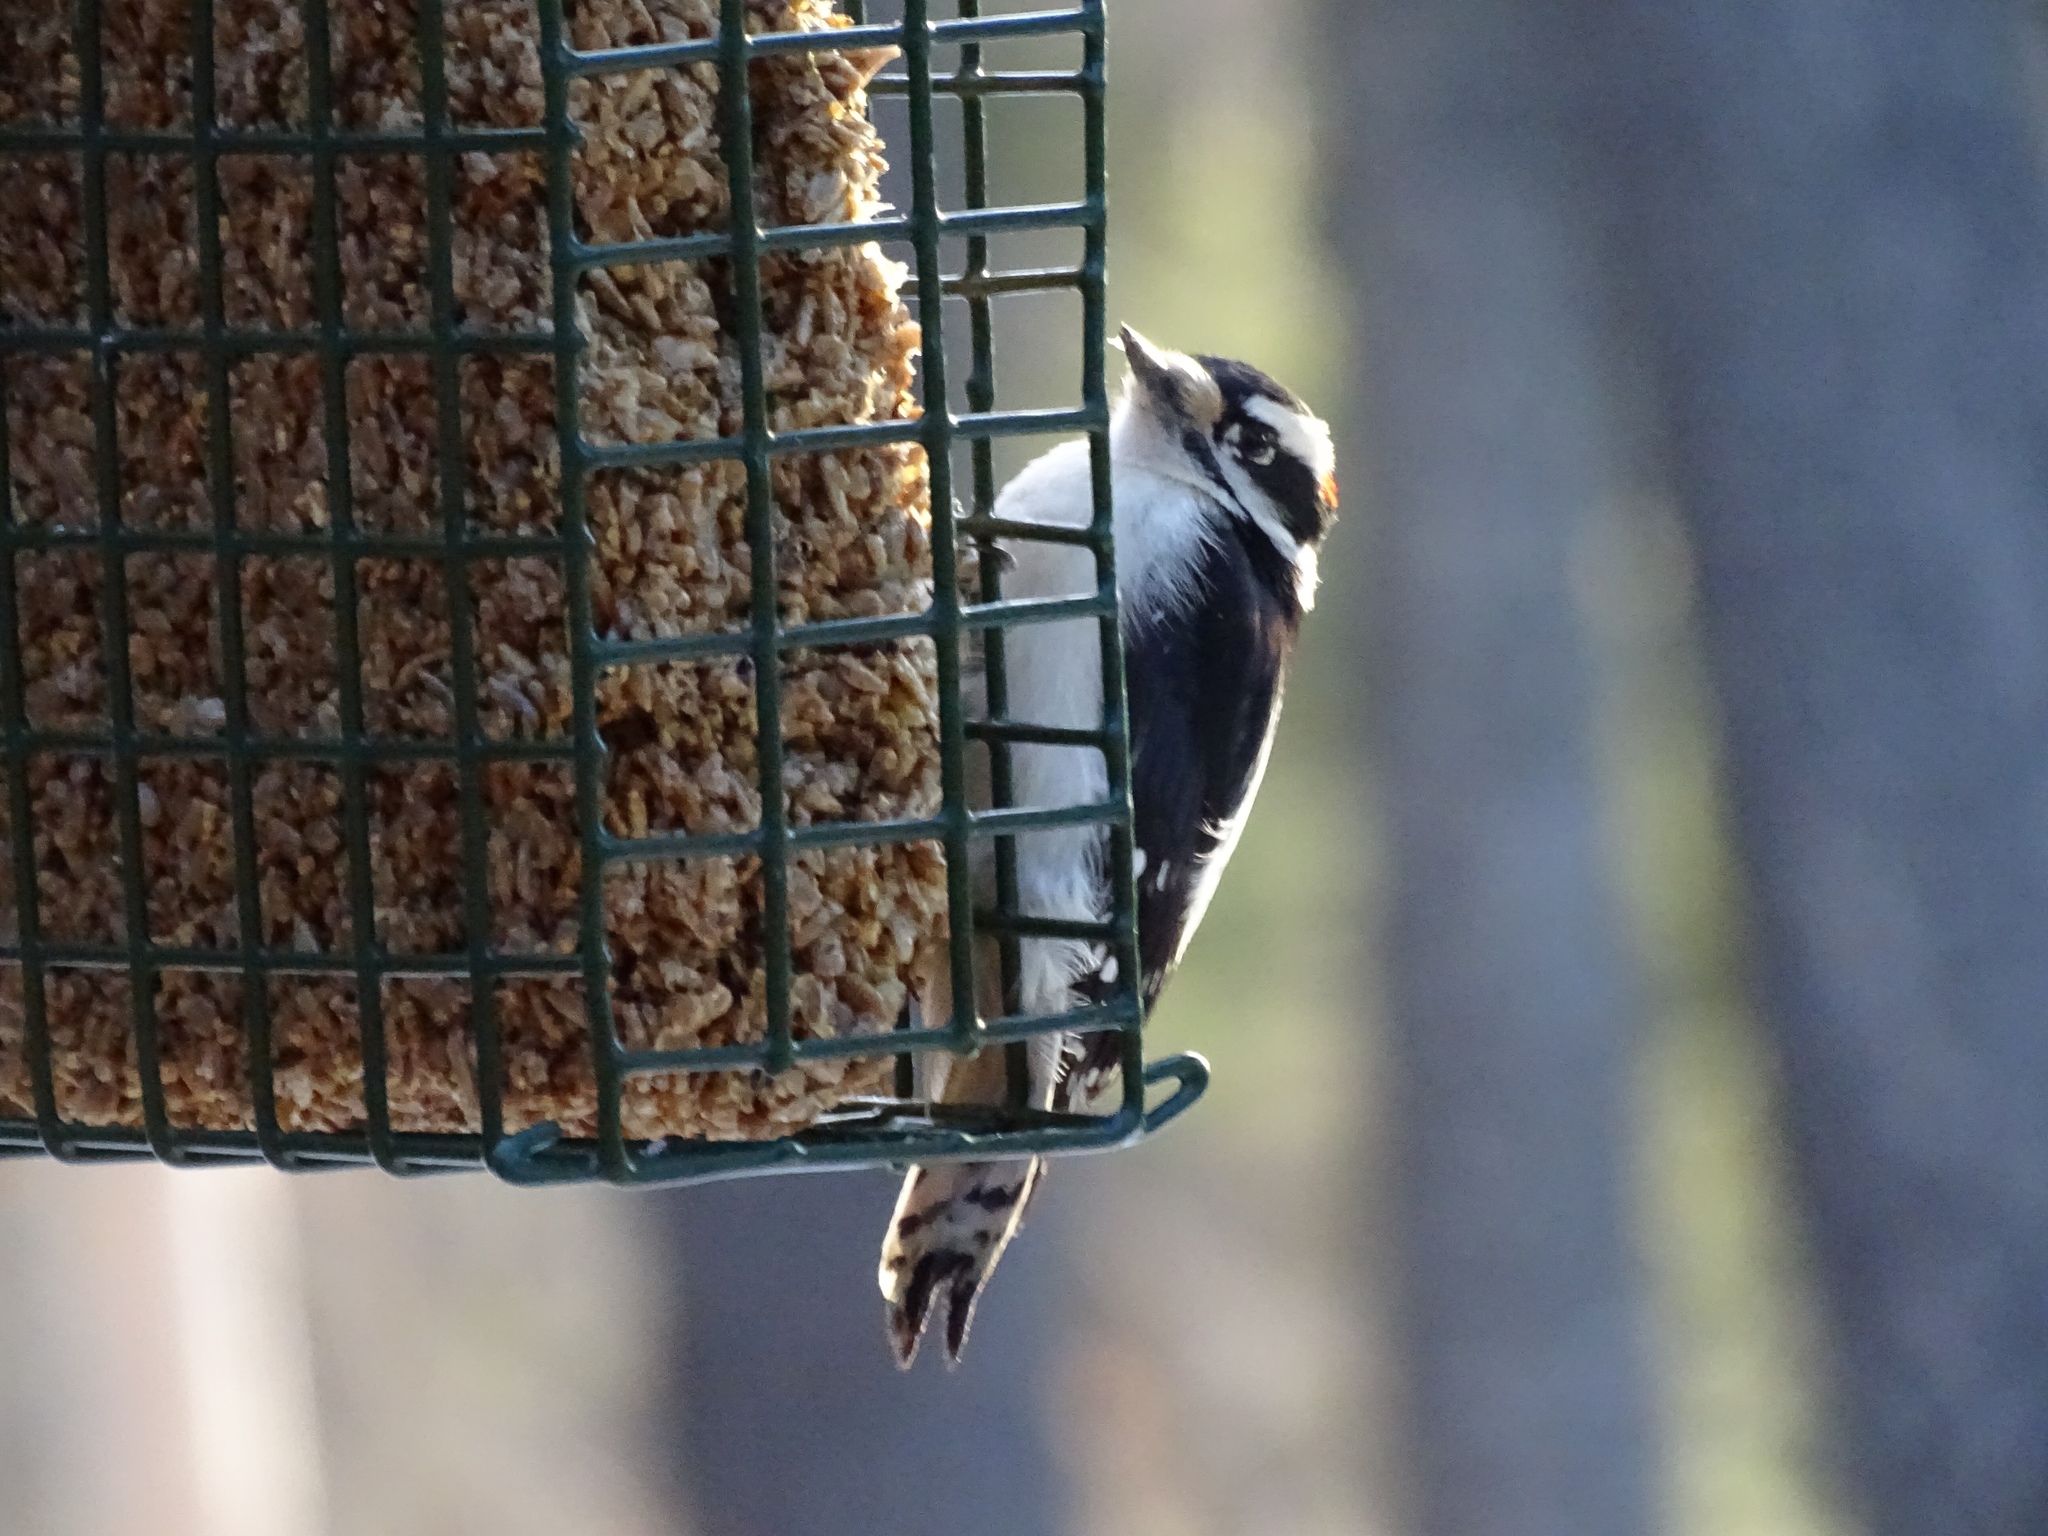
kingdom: Animalia
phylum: Chordata
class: Aves
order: Piciformes
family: Picidae
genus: Dryobates
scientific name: Dryobates pubescens
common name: Downy woodpecker
